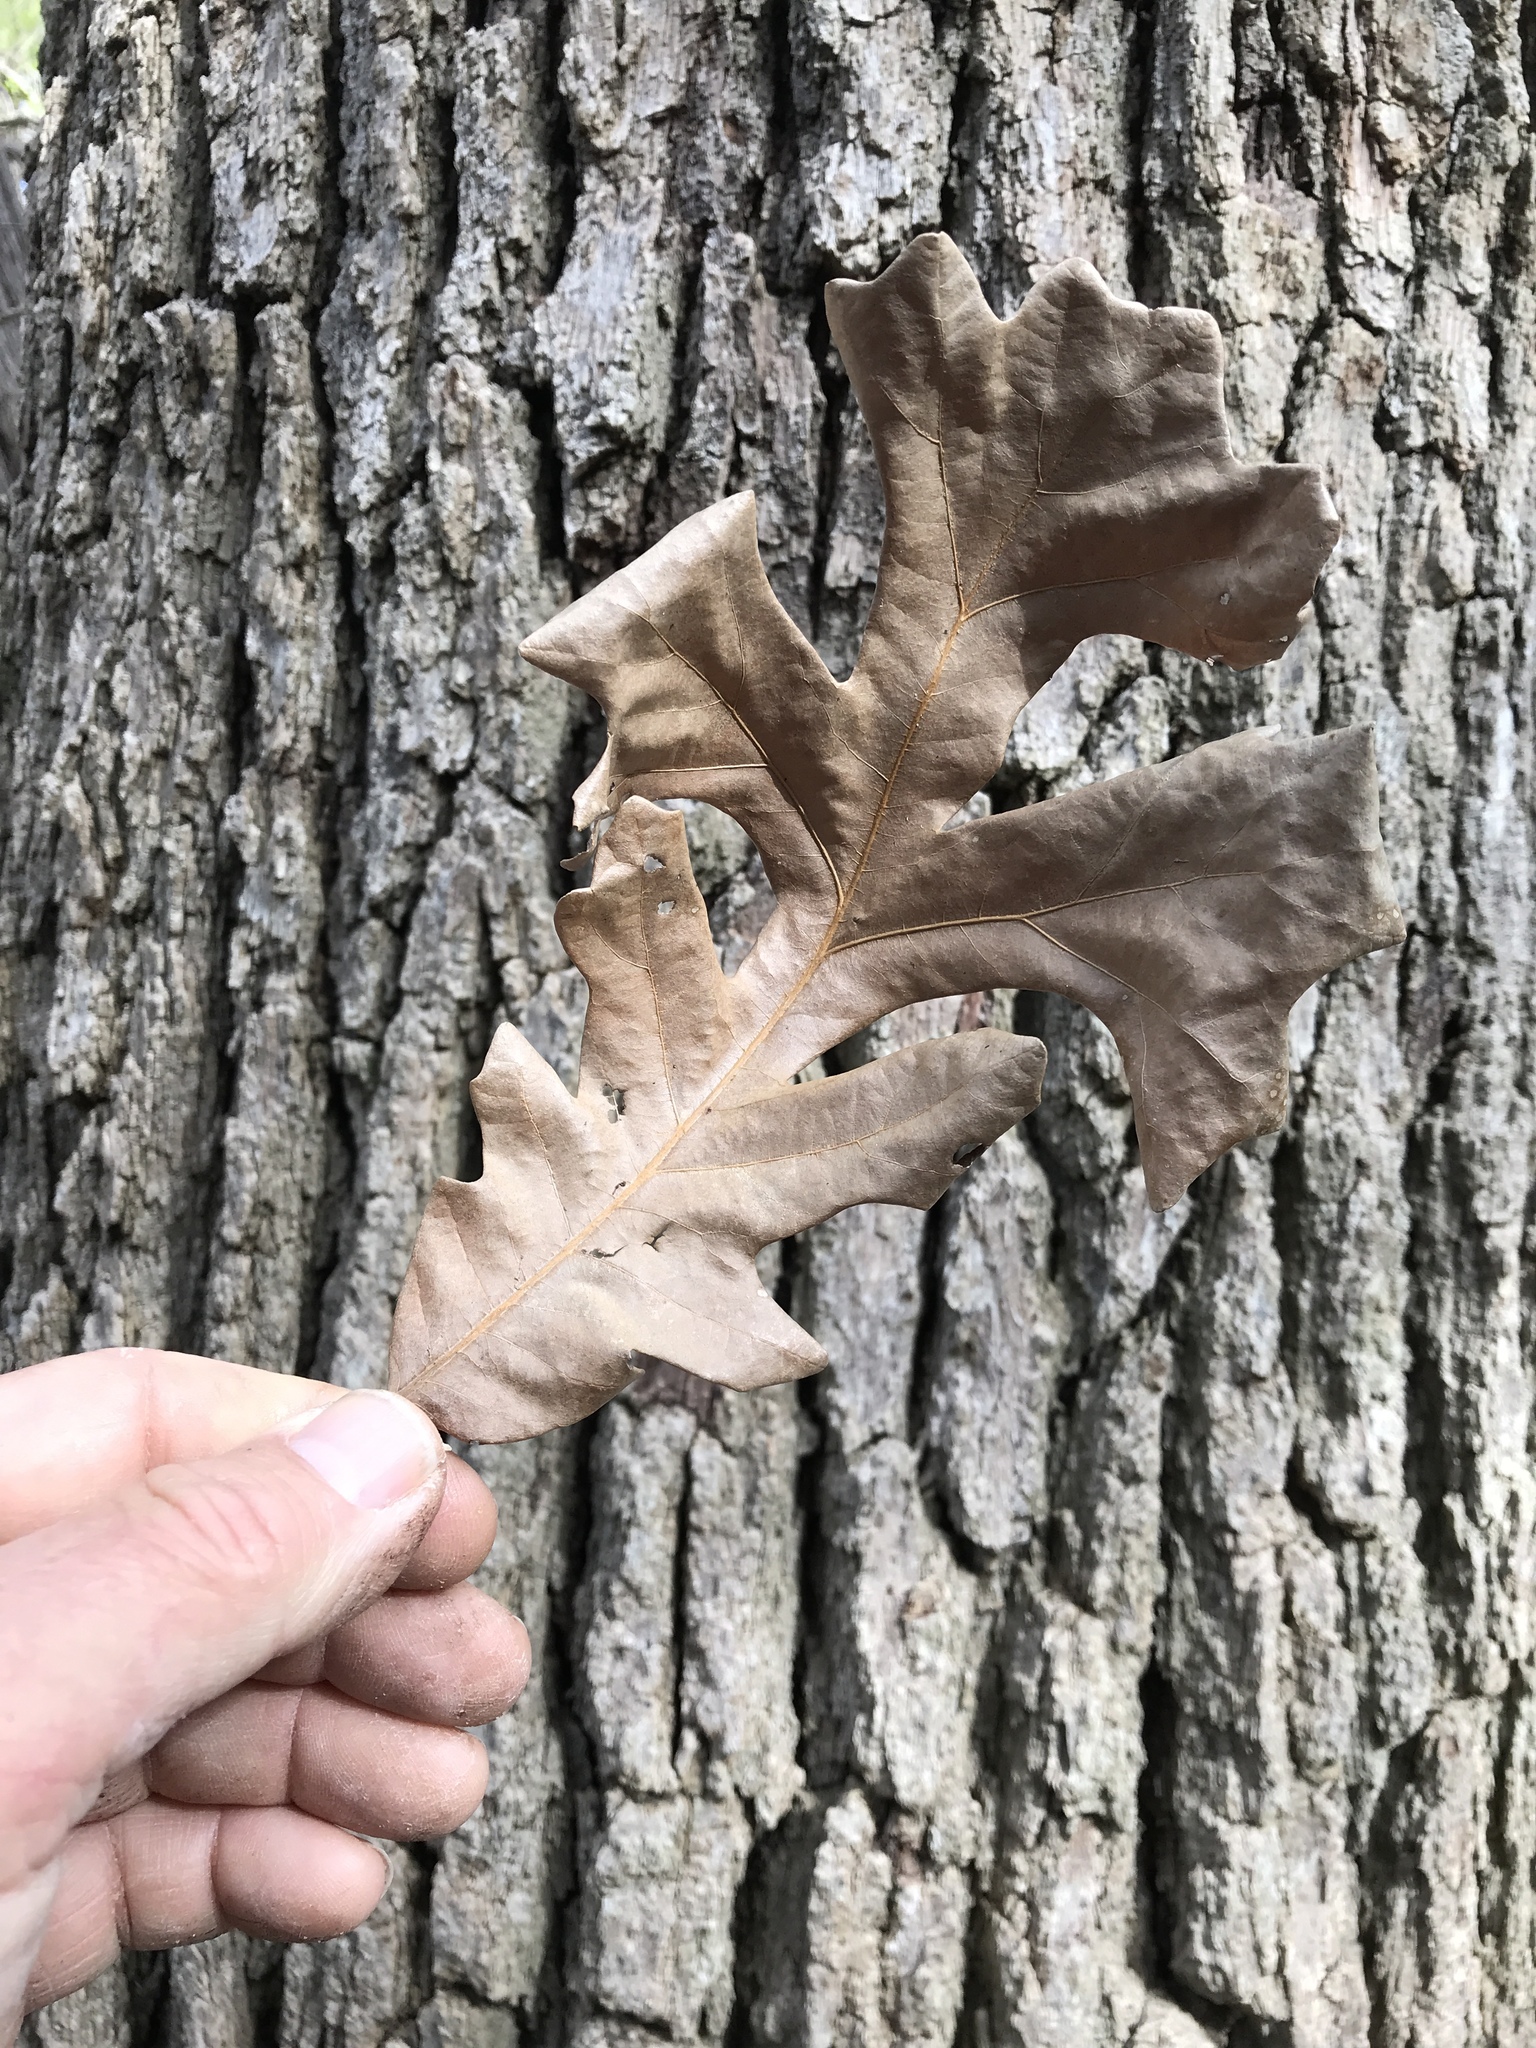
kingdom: Plantae
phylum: Tracheophyta
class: Magnoliopsida
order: Fagales
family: Fagaceae
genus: Quercus
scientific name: Quercus macrocarpa
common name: Bur oak
